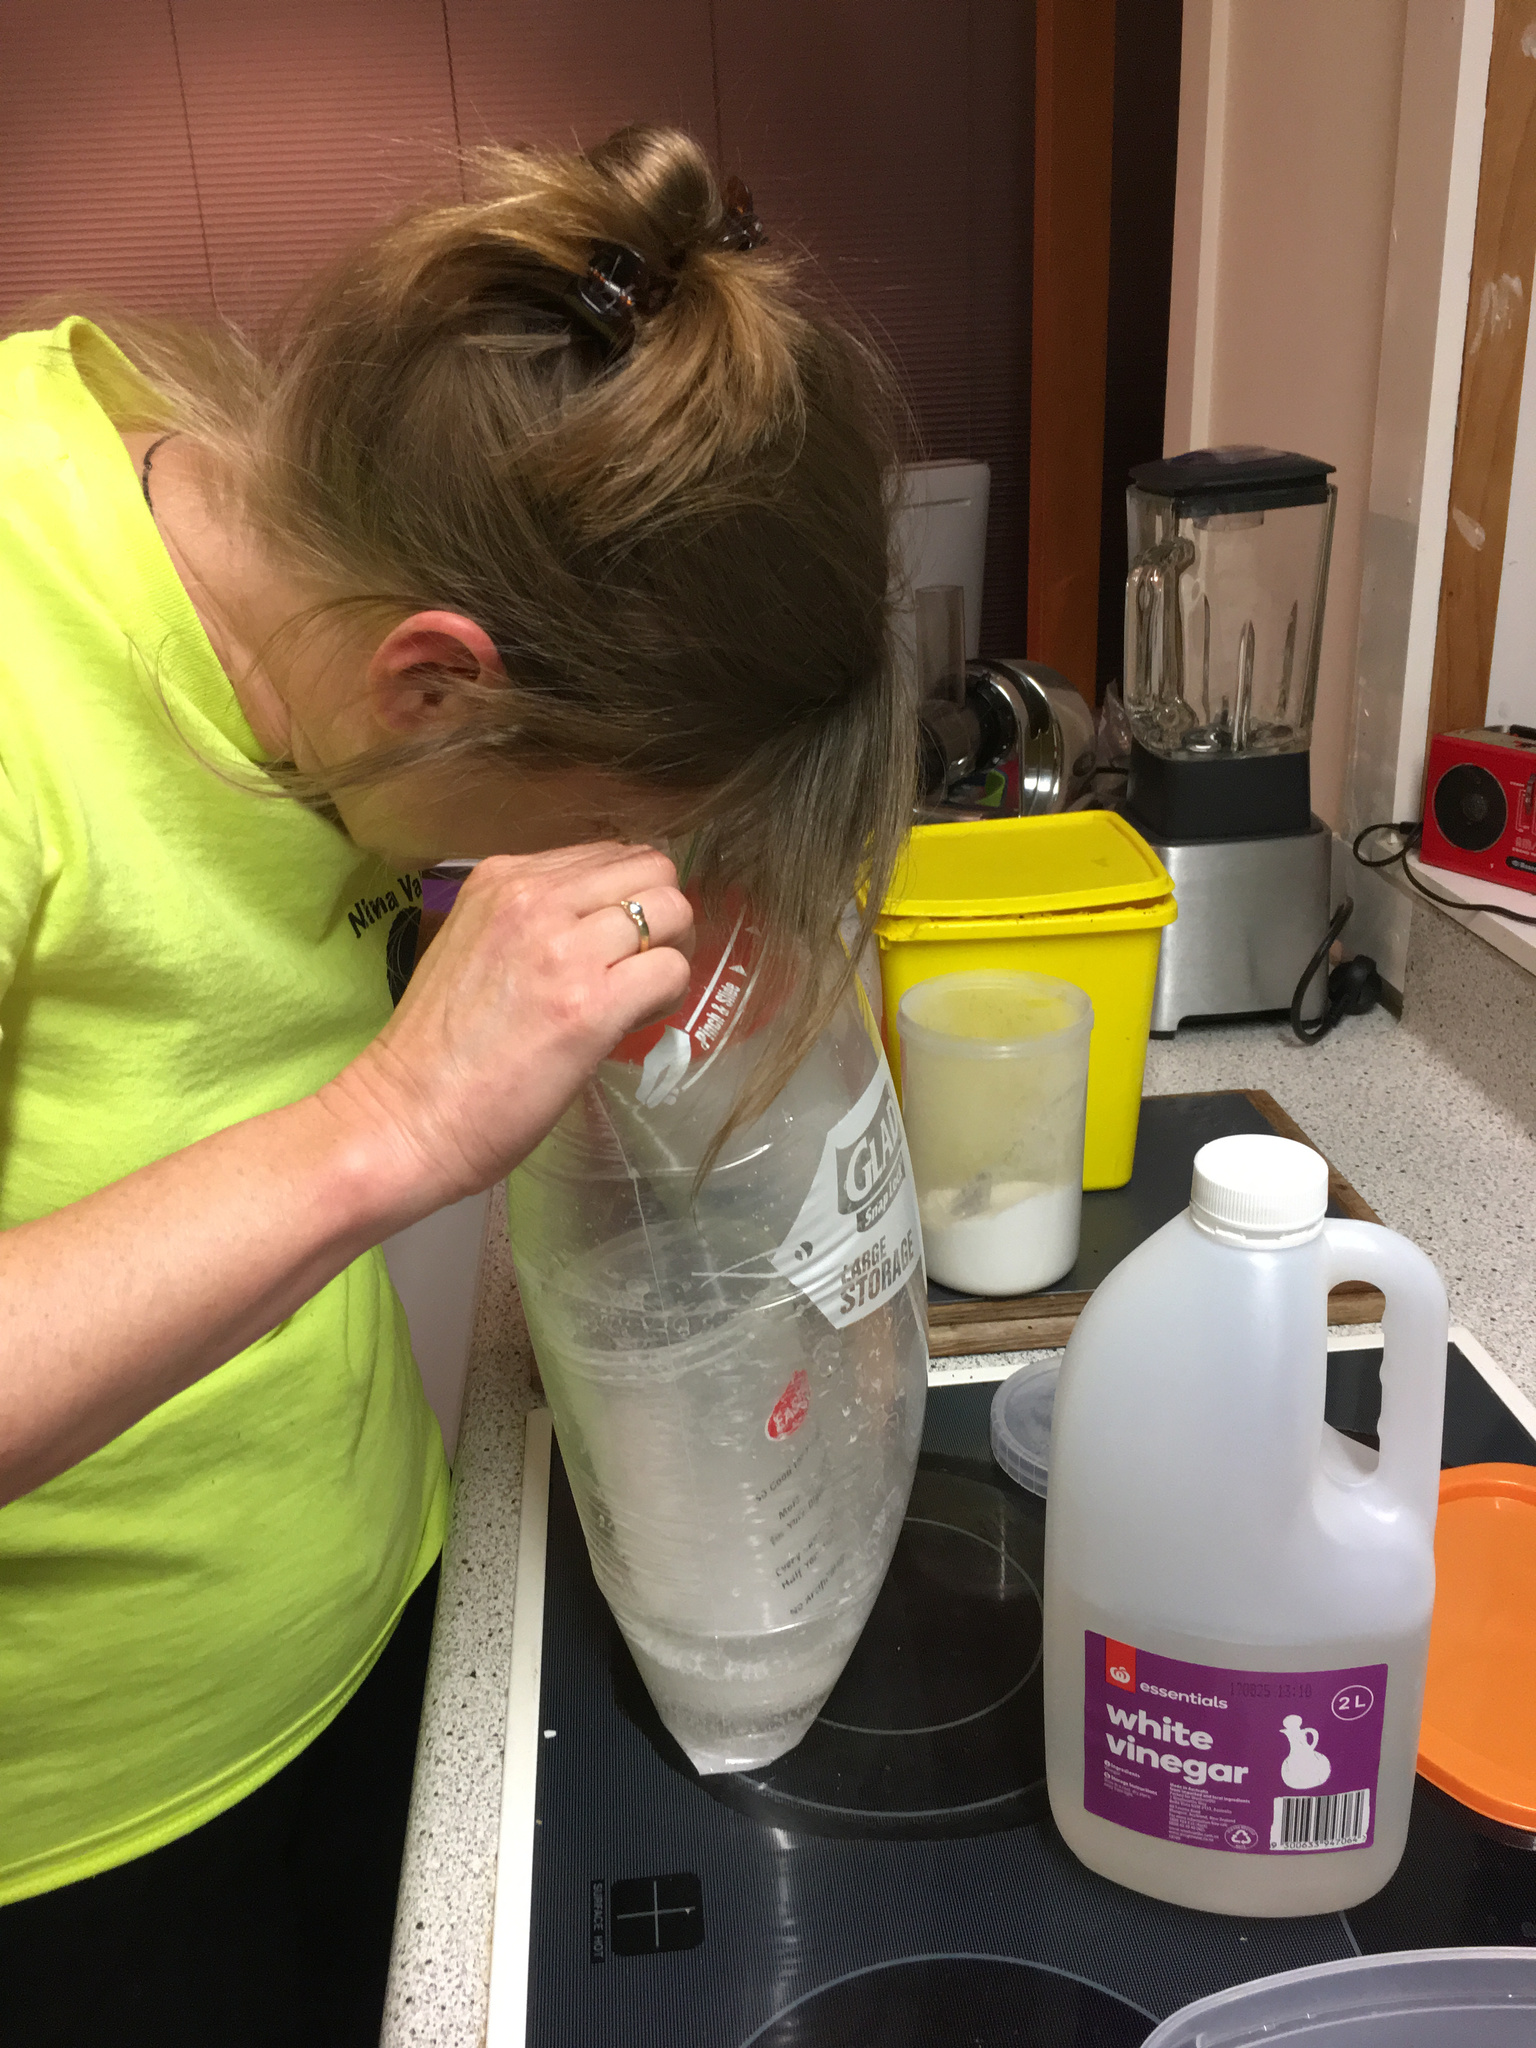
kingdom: Animalia
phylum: Chordata
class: Mammalia
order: Rodentia
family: Muridae
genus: Rattus
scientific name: Rattus rattus
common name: Black rat
